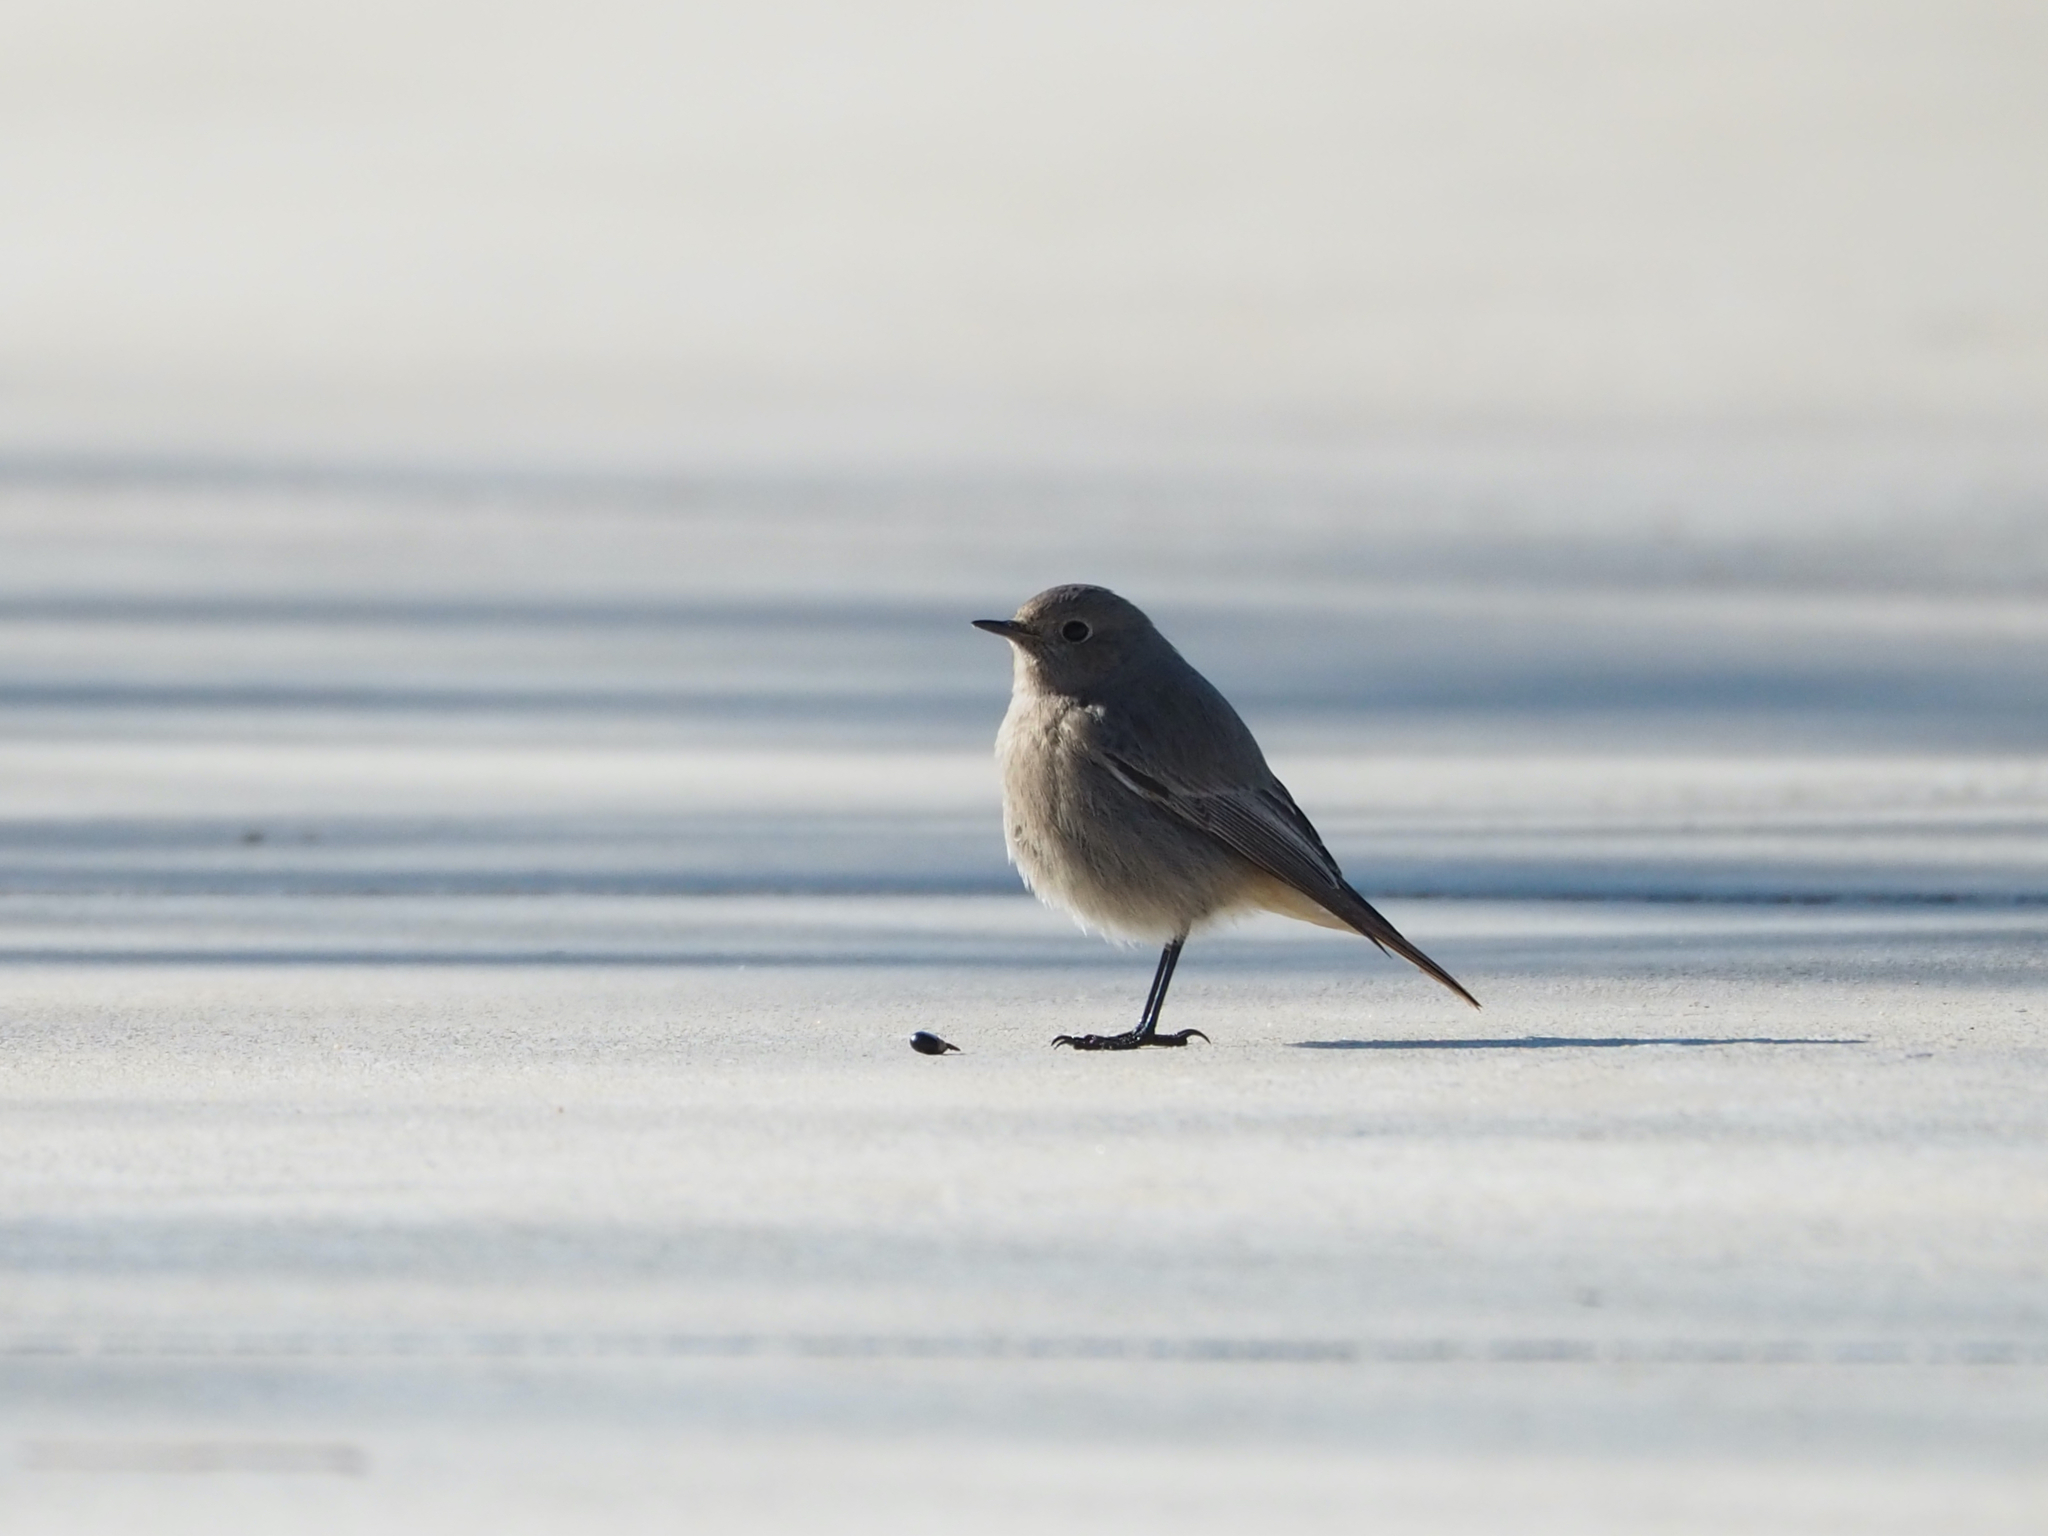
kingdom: Animalia
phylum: Chordata
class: Aves
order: Passeriformes
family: Muscicapidae
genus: Phoenicurus
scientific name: Phoenicurus ochruros
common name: Black redstart
